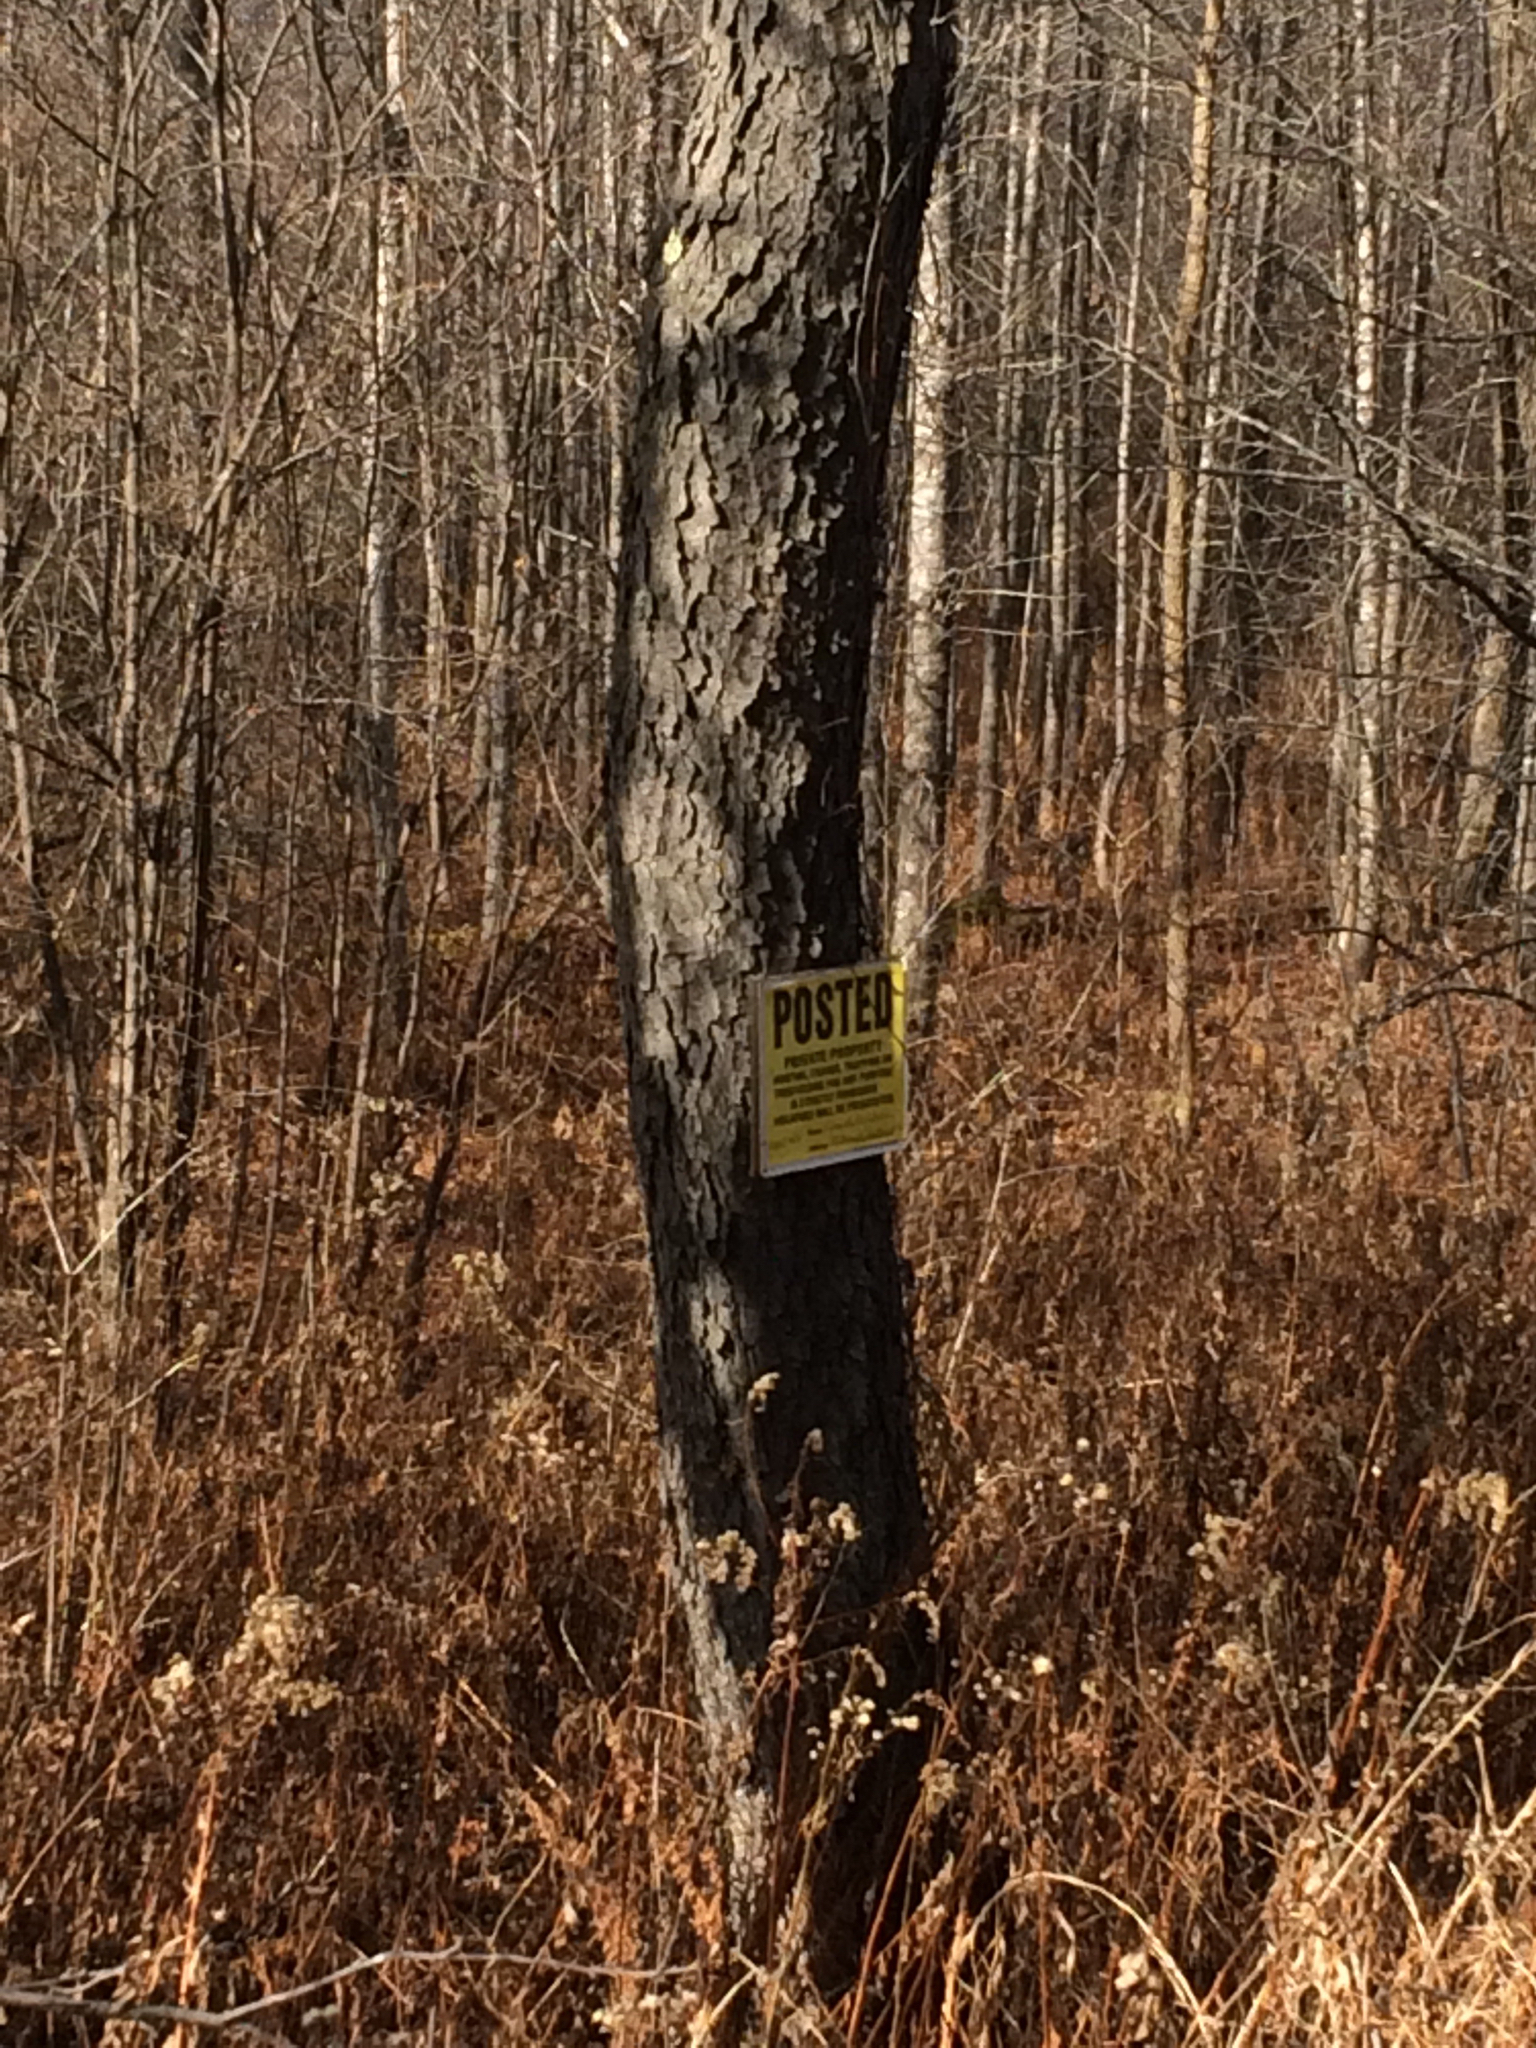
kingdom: Plantae
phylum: Tracheophyta
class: Magnoliopsida
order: Rosales
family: Rosaceae
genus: Prunus
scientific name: Prunus serotina
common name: Black cherry
